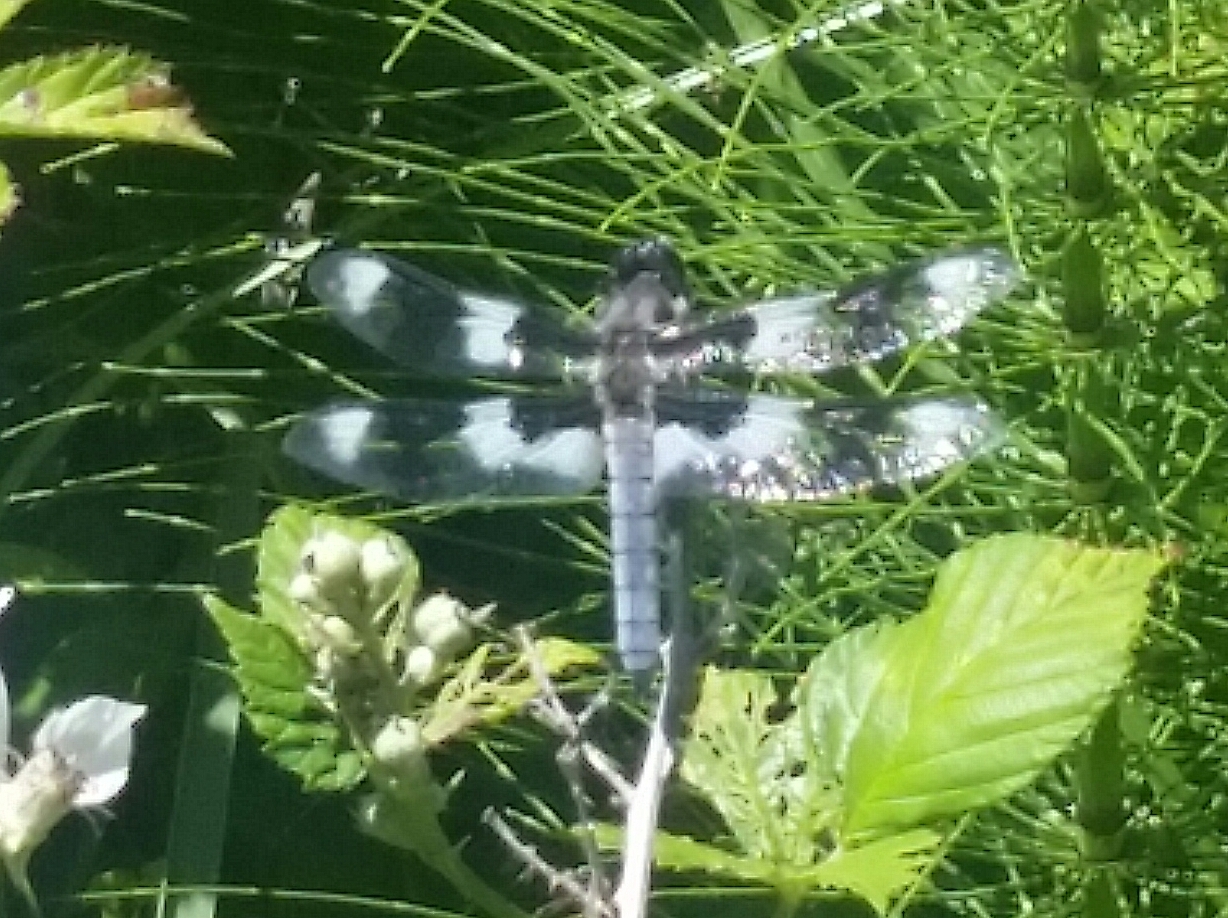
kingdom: Animalia
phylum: Arthropoda
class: Insecta
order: Odonata
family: Libellulidae
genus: Libellula
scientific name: Libellula forensis
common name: Eight-spotted skimmer
